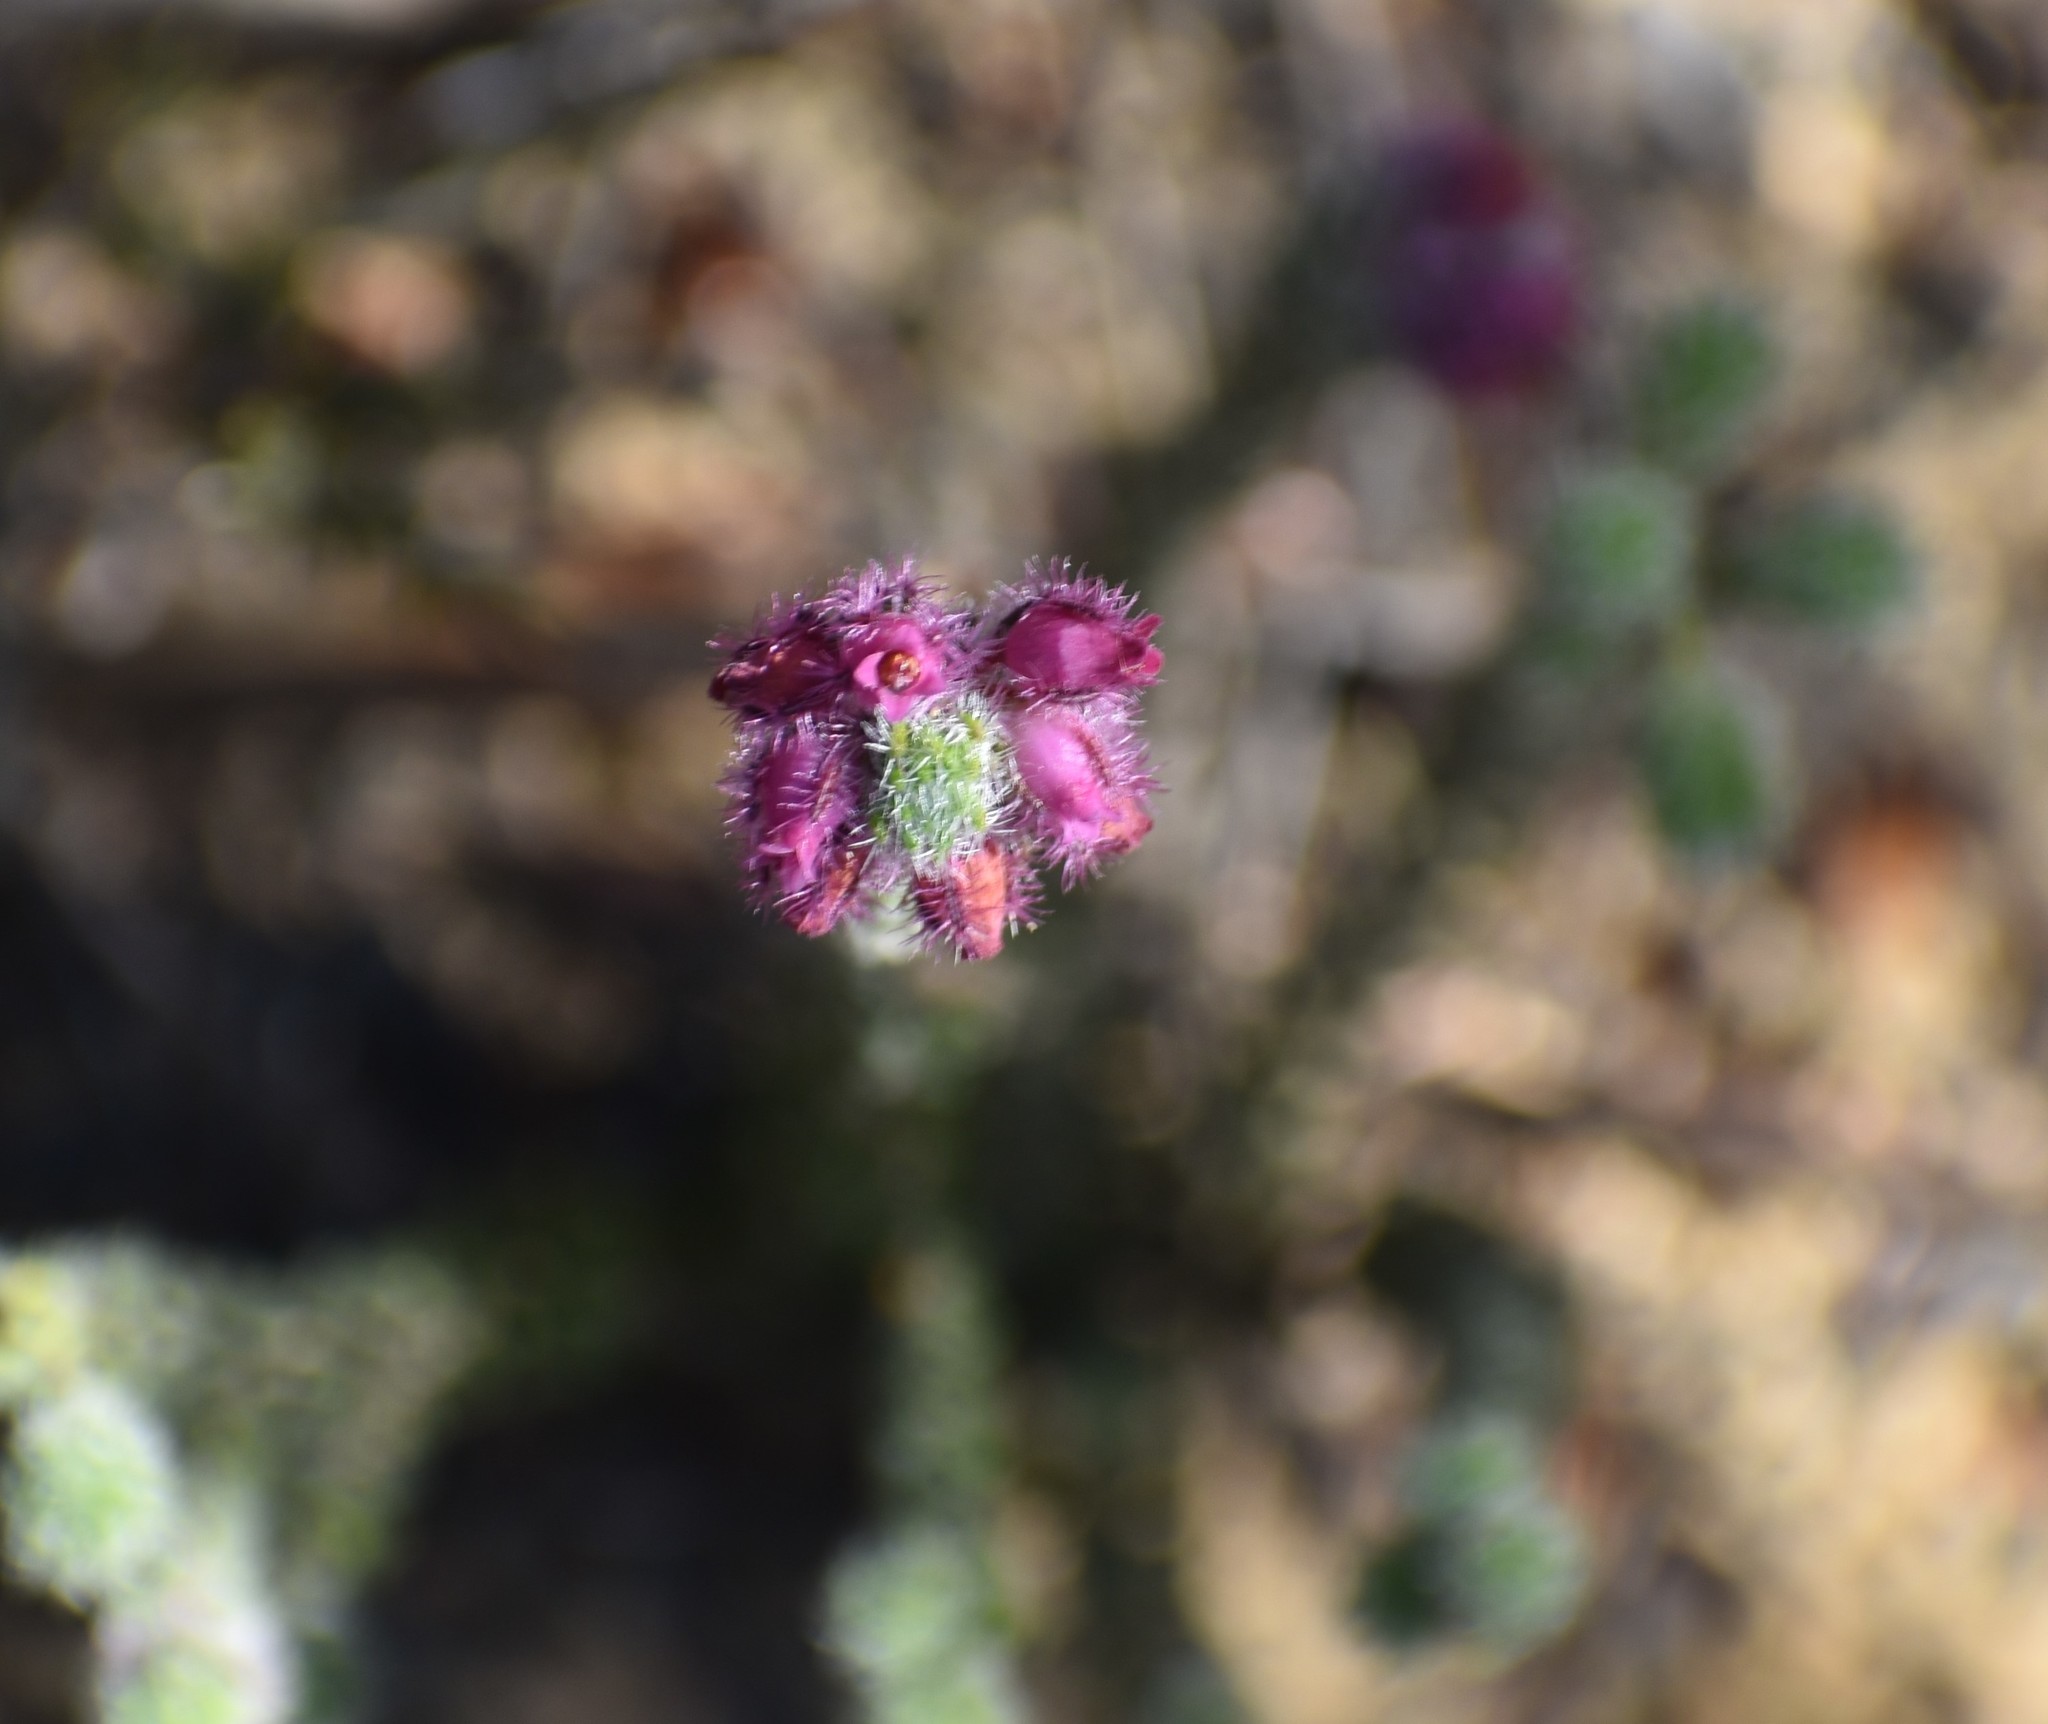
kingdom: Plantae
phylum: Tracheophyta
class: Magnoliopsida
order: Ericales
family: Ericaceae
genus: Erica
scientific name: Erica solandra
